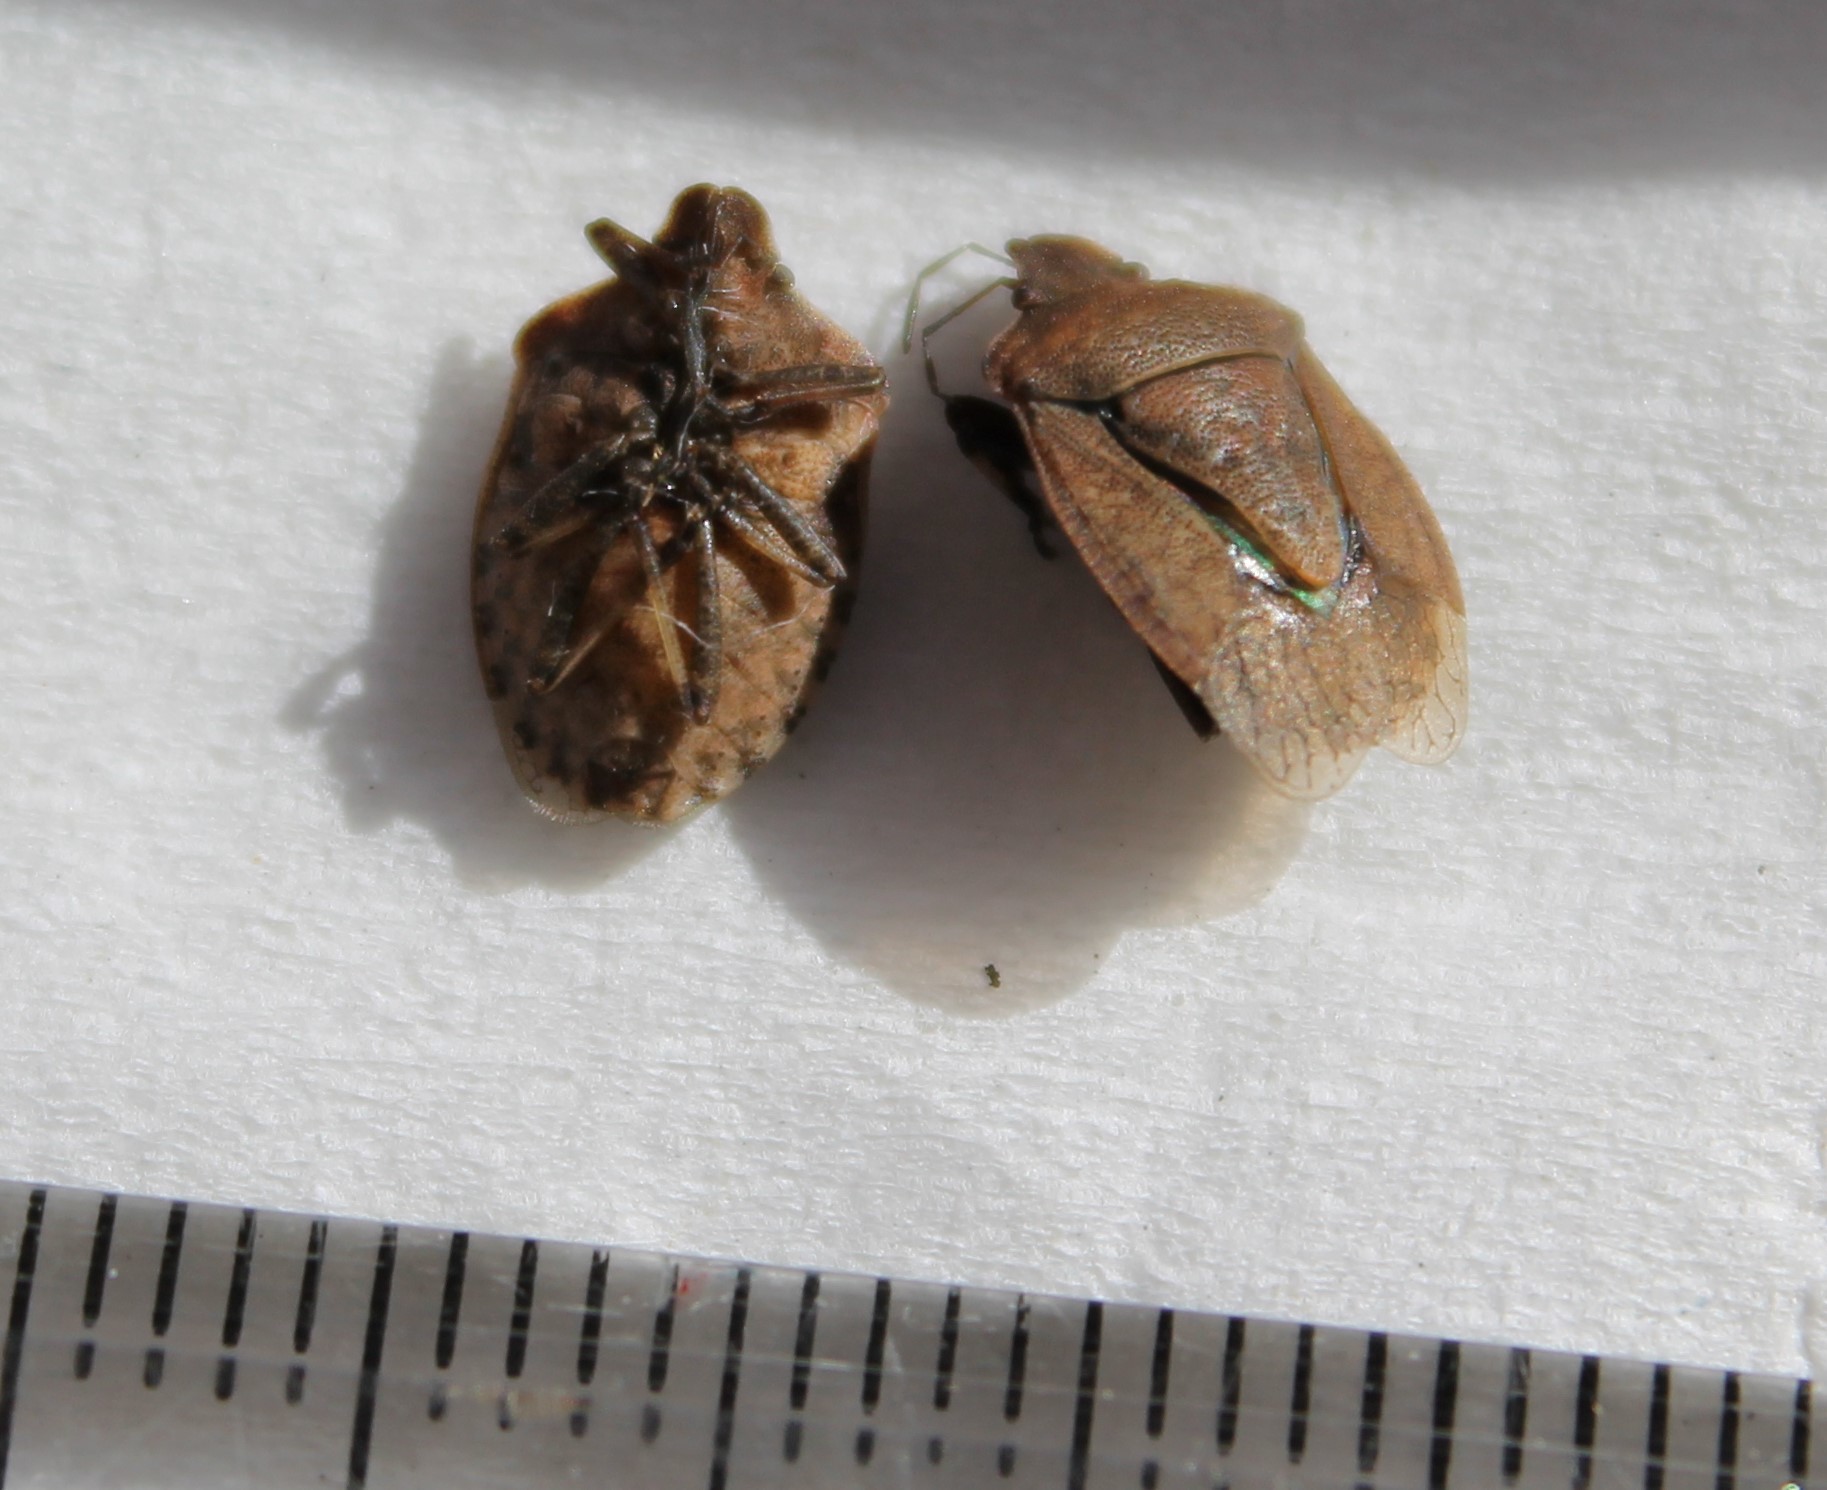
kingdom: Animalia
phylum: Arthropoda
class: Insecta
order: Hemiptera
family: Pentatomidae
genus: Dictyotus
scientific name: Dictyotus caenosus
